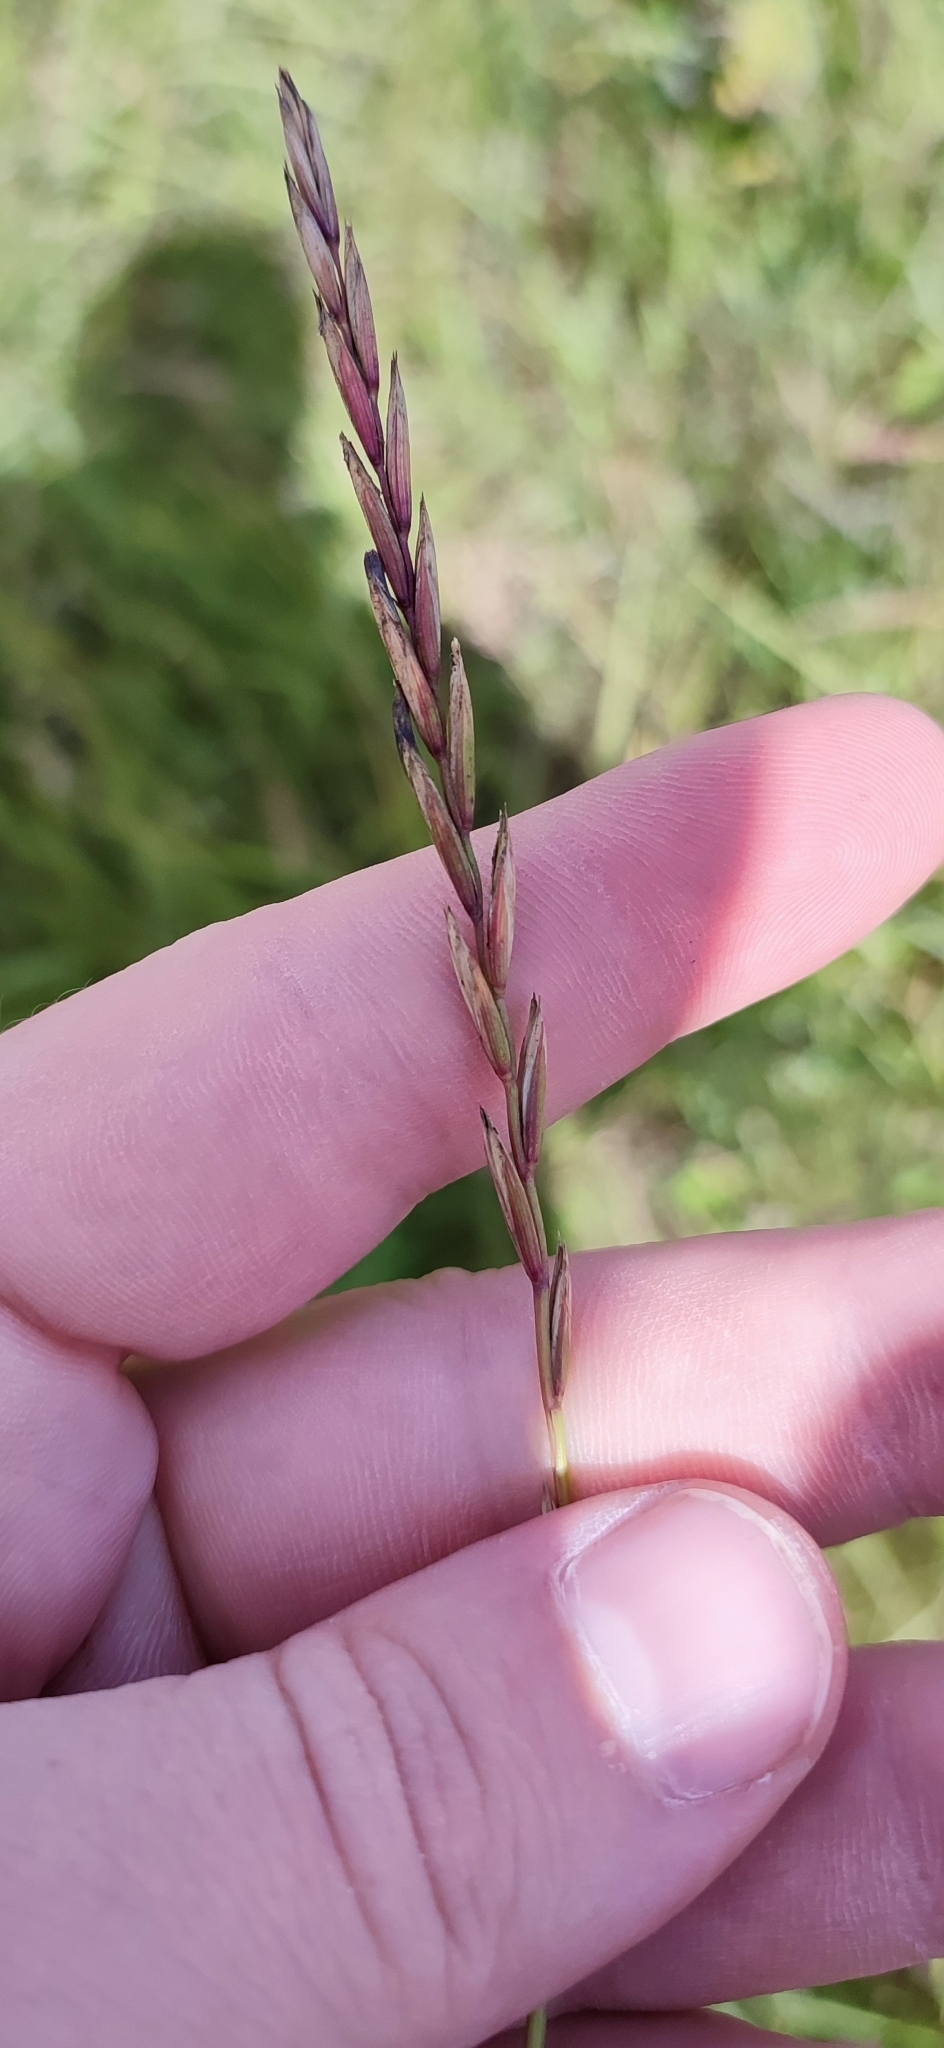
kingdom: Plantae
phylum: Tracheophyta
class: Liliopsida
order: Poales
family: Poaceae
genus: Elymus
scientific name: Elymus repens
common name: Quackgrass
